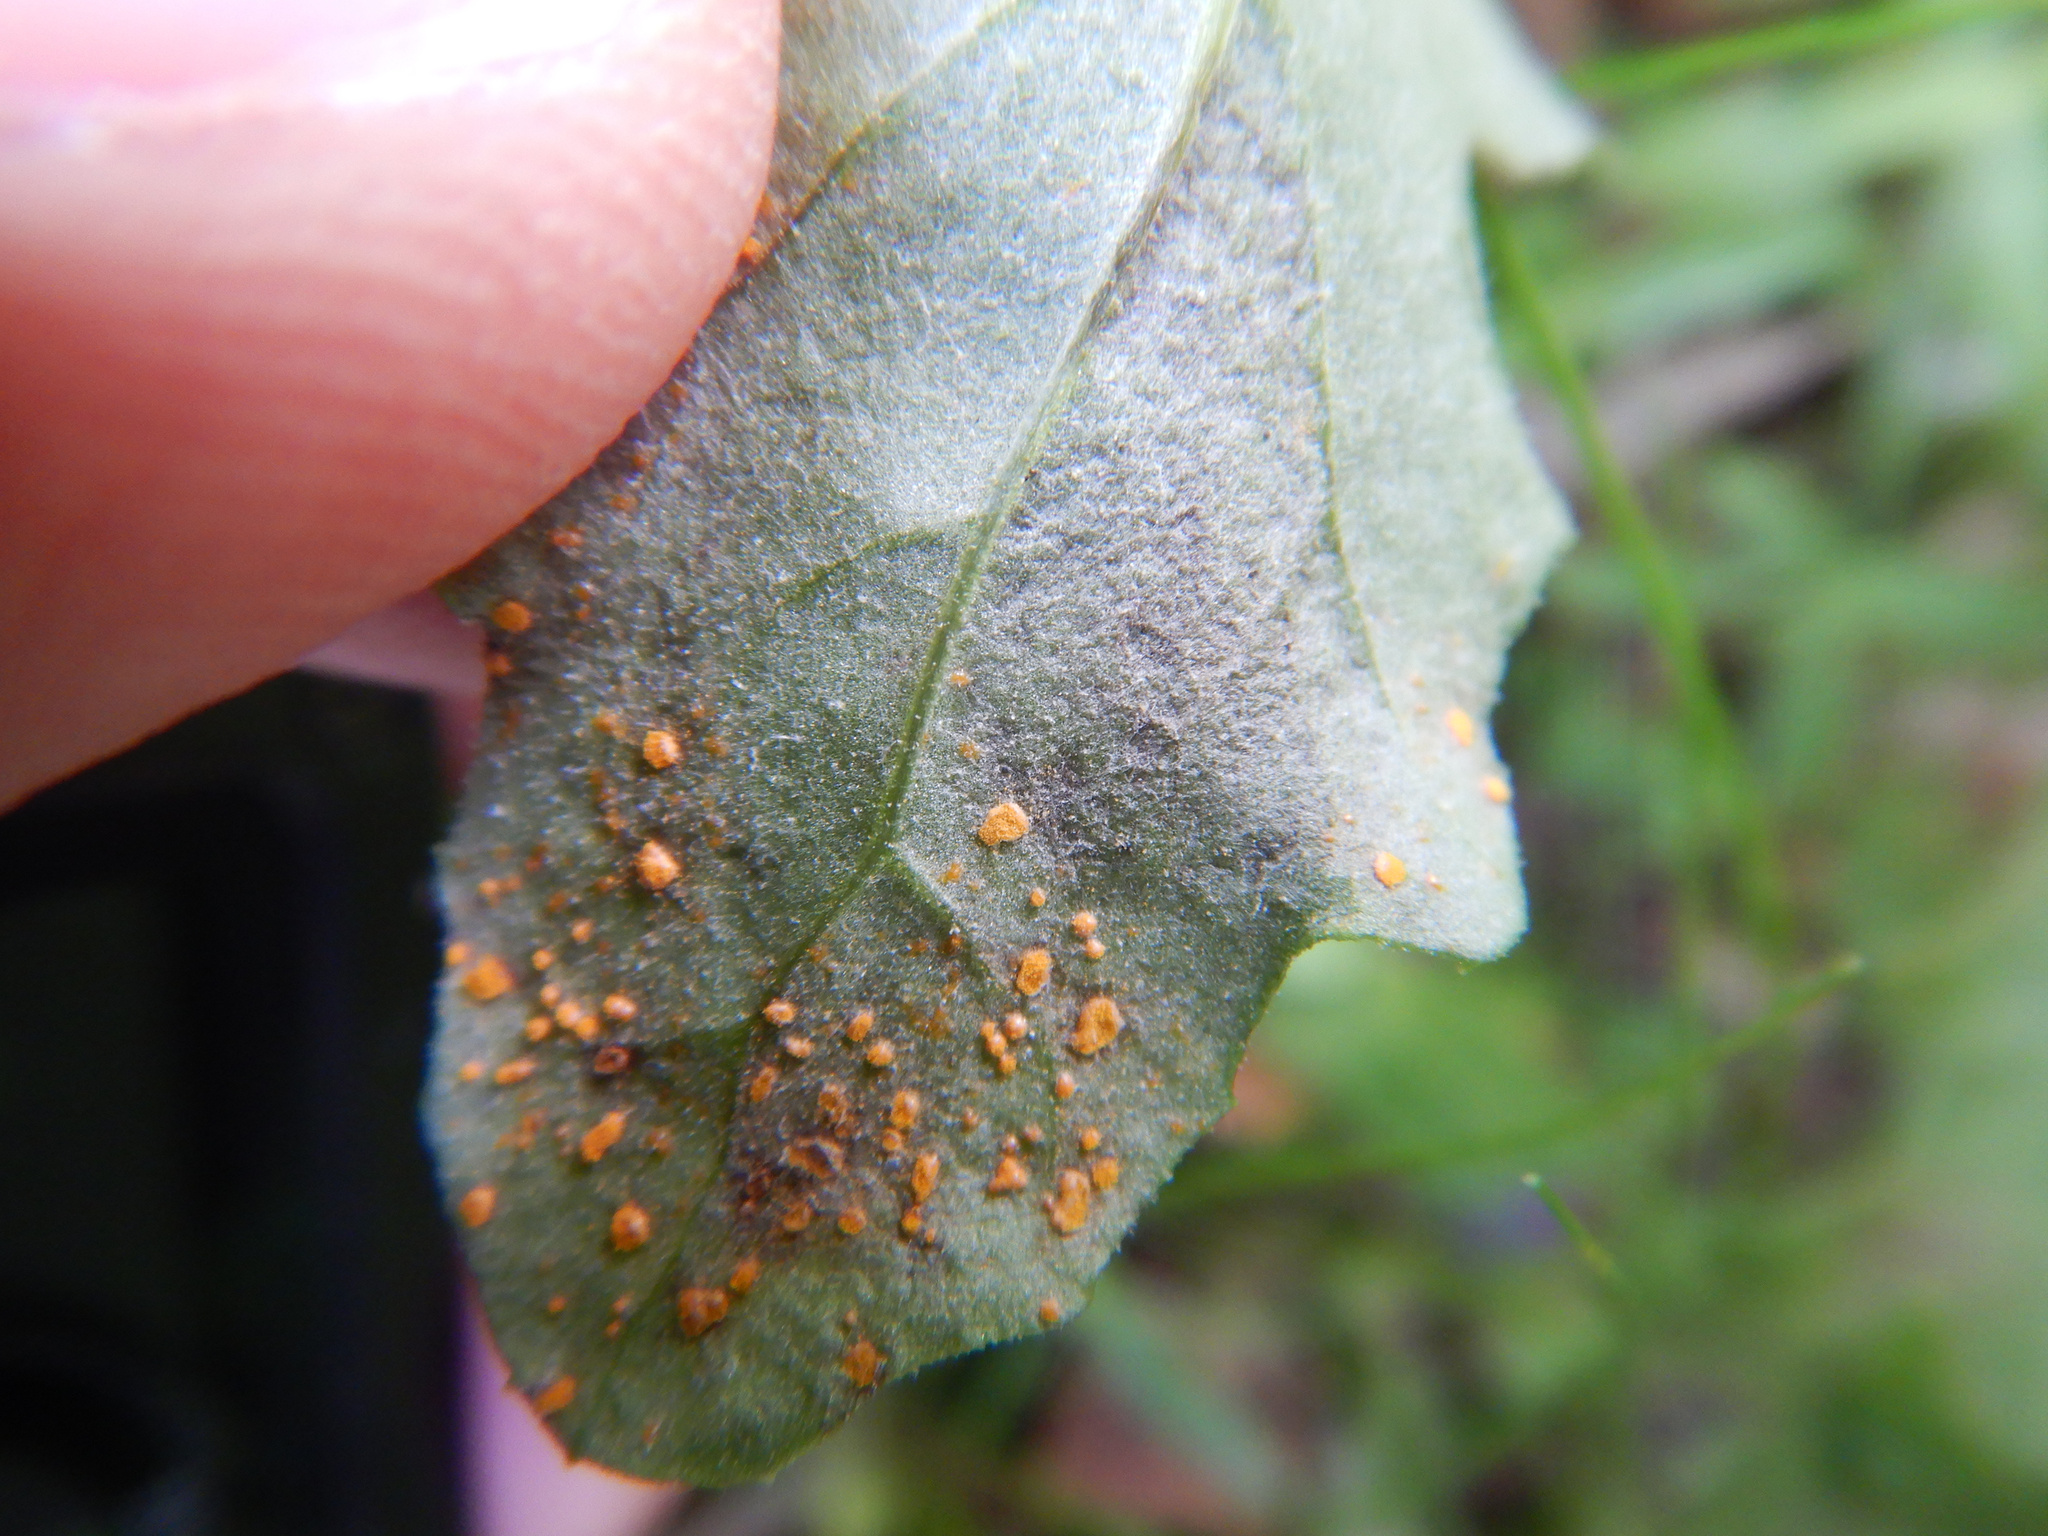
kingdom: Fungi
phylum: Basidiomycota
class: Pucciniomycetes
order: Pucciniales
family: Coleosporiaceae
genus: Coleosporium
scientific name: Coleosporium tussilaginis
